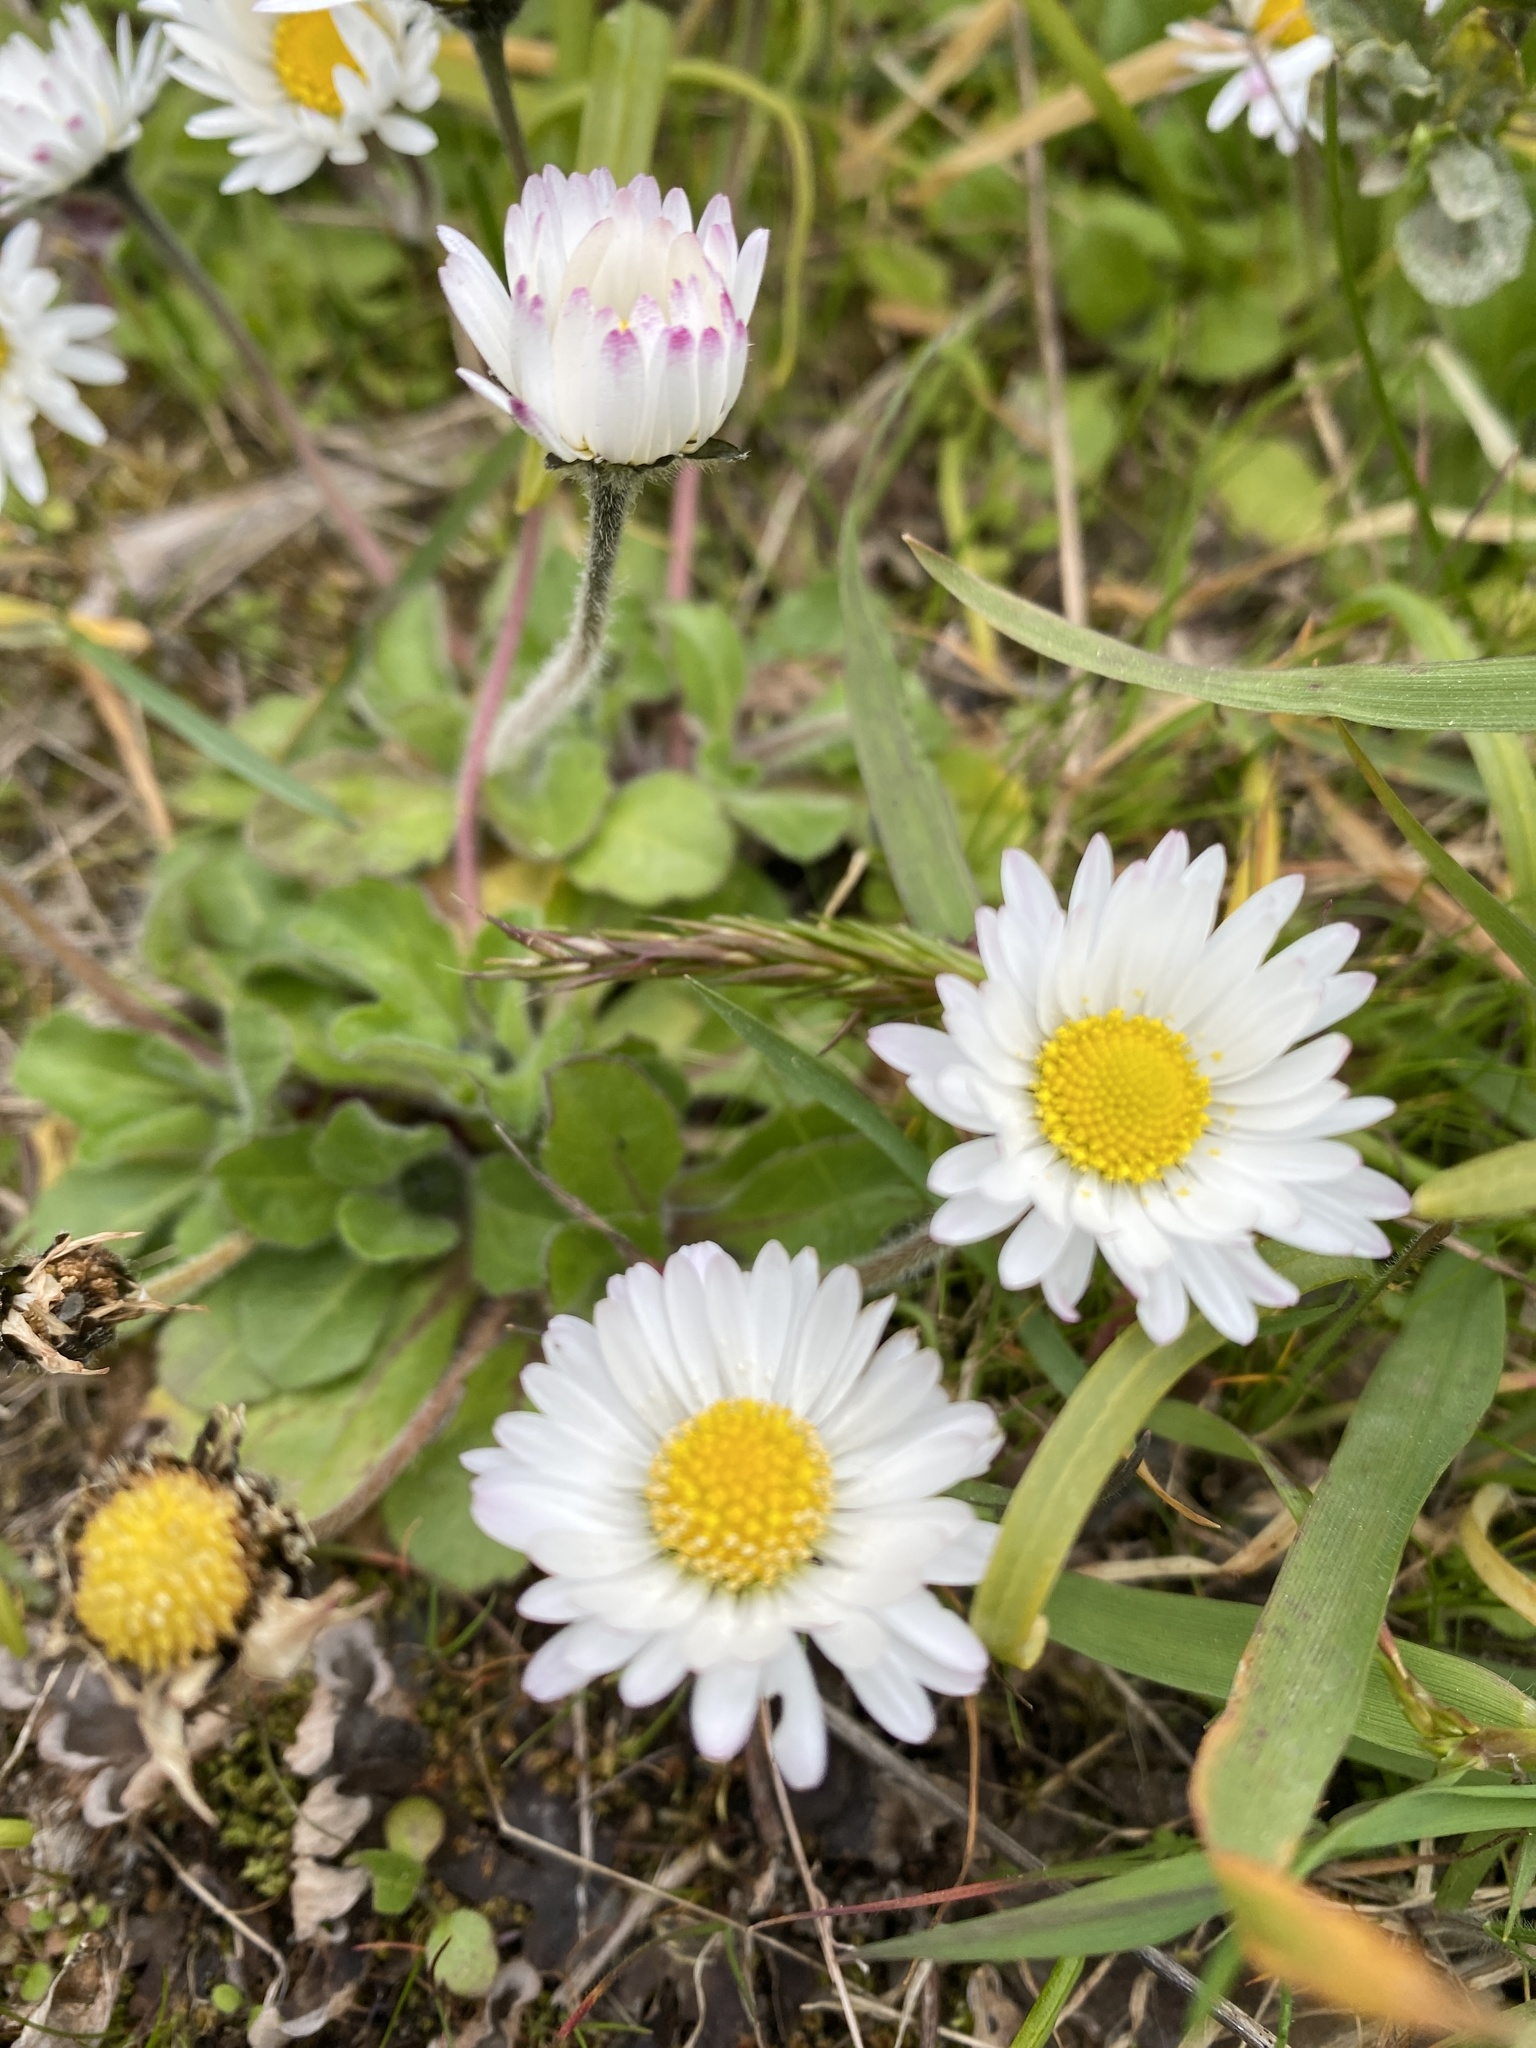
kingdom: Plantae
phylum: Tracheophyta
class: Magnoliopsida
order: Asterales
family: Asteraceae
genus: Bellis
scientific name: Bellis perennis
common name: Lawndaisy
